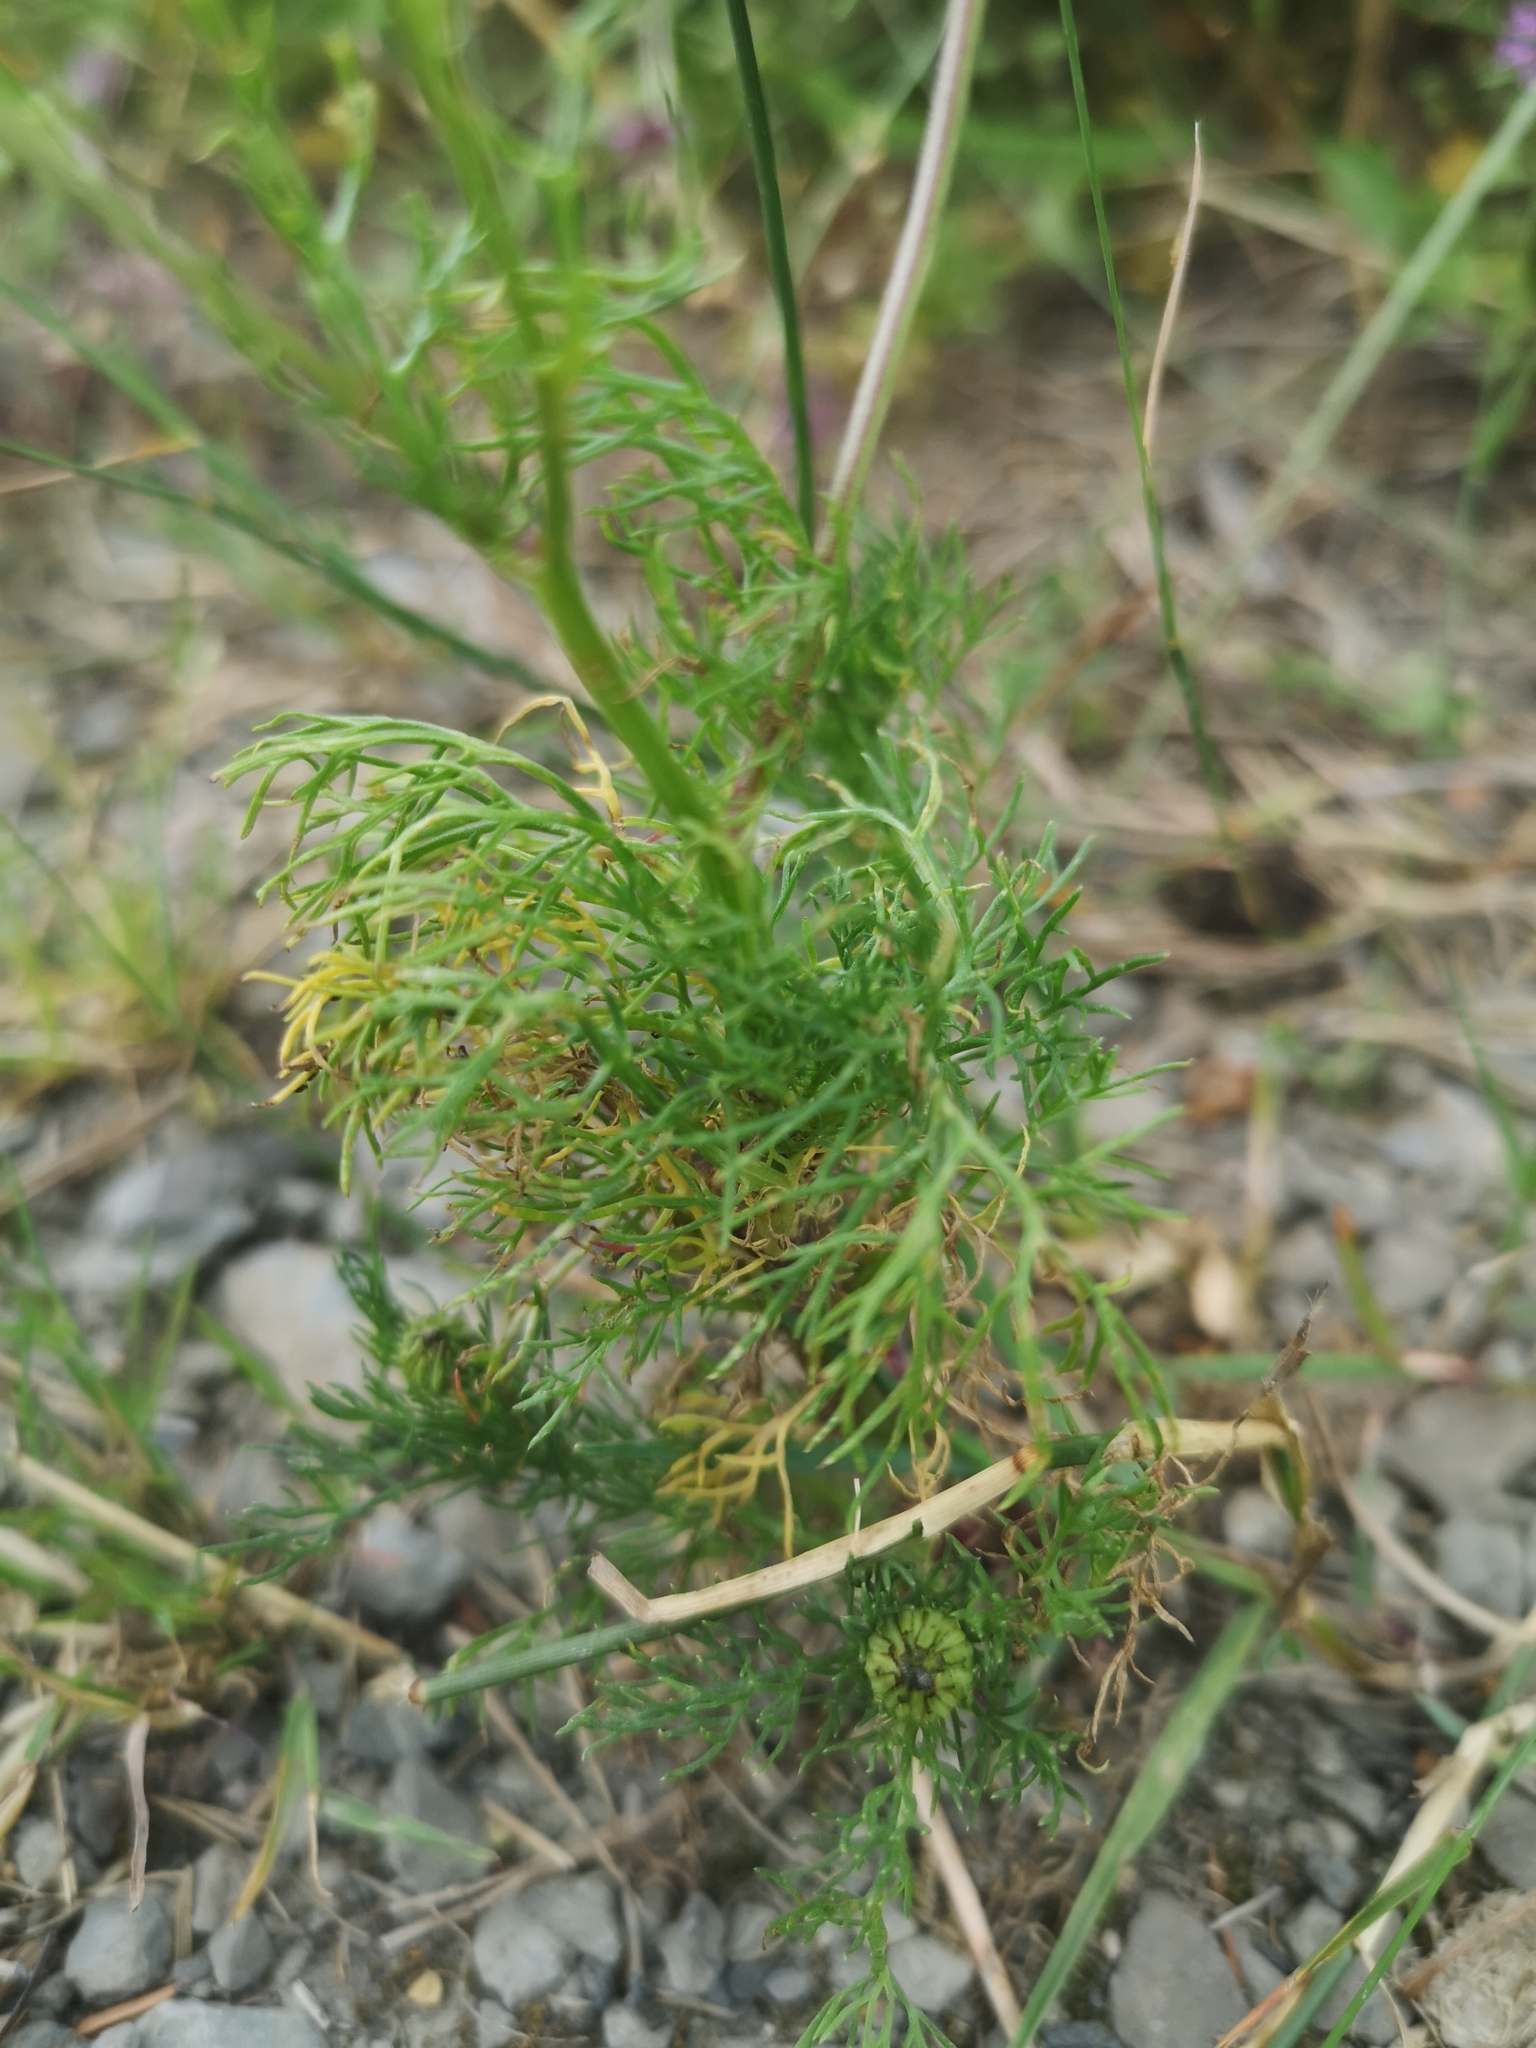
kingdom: Plantae
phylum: Tracheophyta
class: Magnoliopsida
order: Asterales
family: Asteraceae
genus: Tripleurospermum
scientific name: Tripleurospermum inodorum
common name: Scentless mayweed
